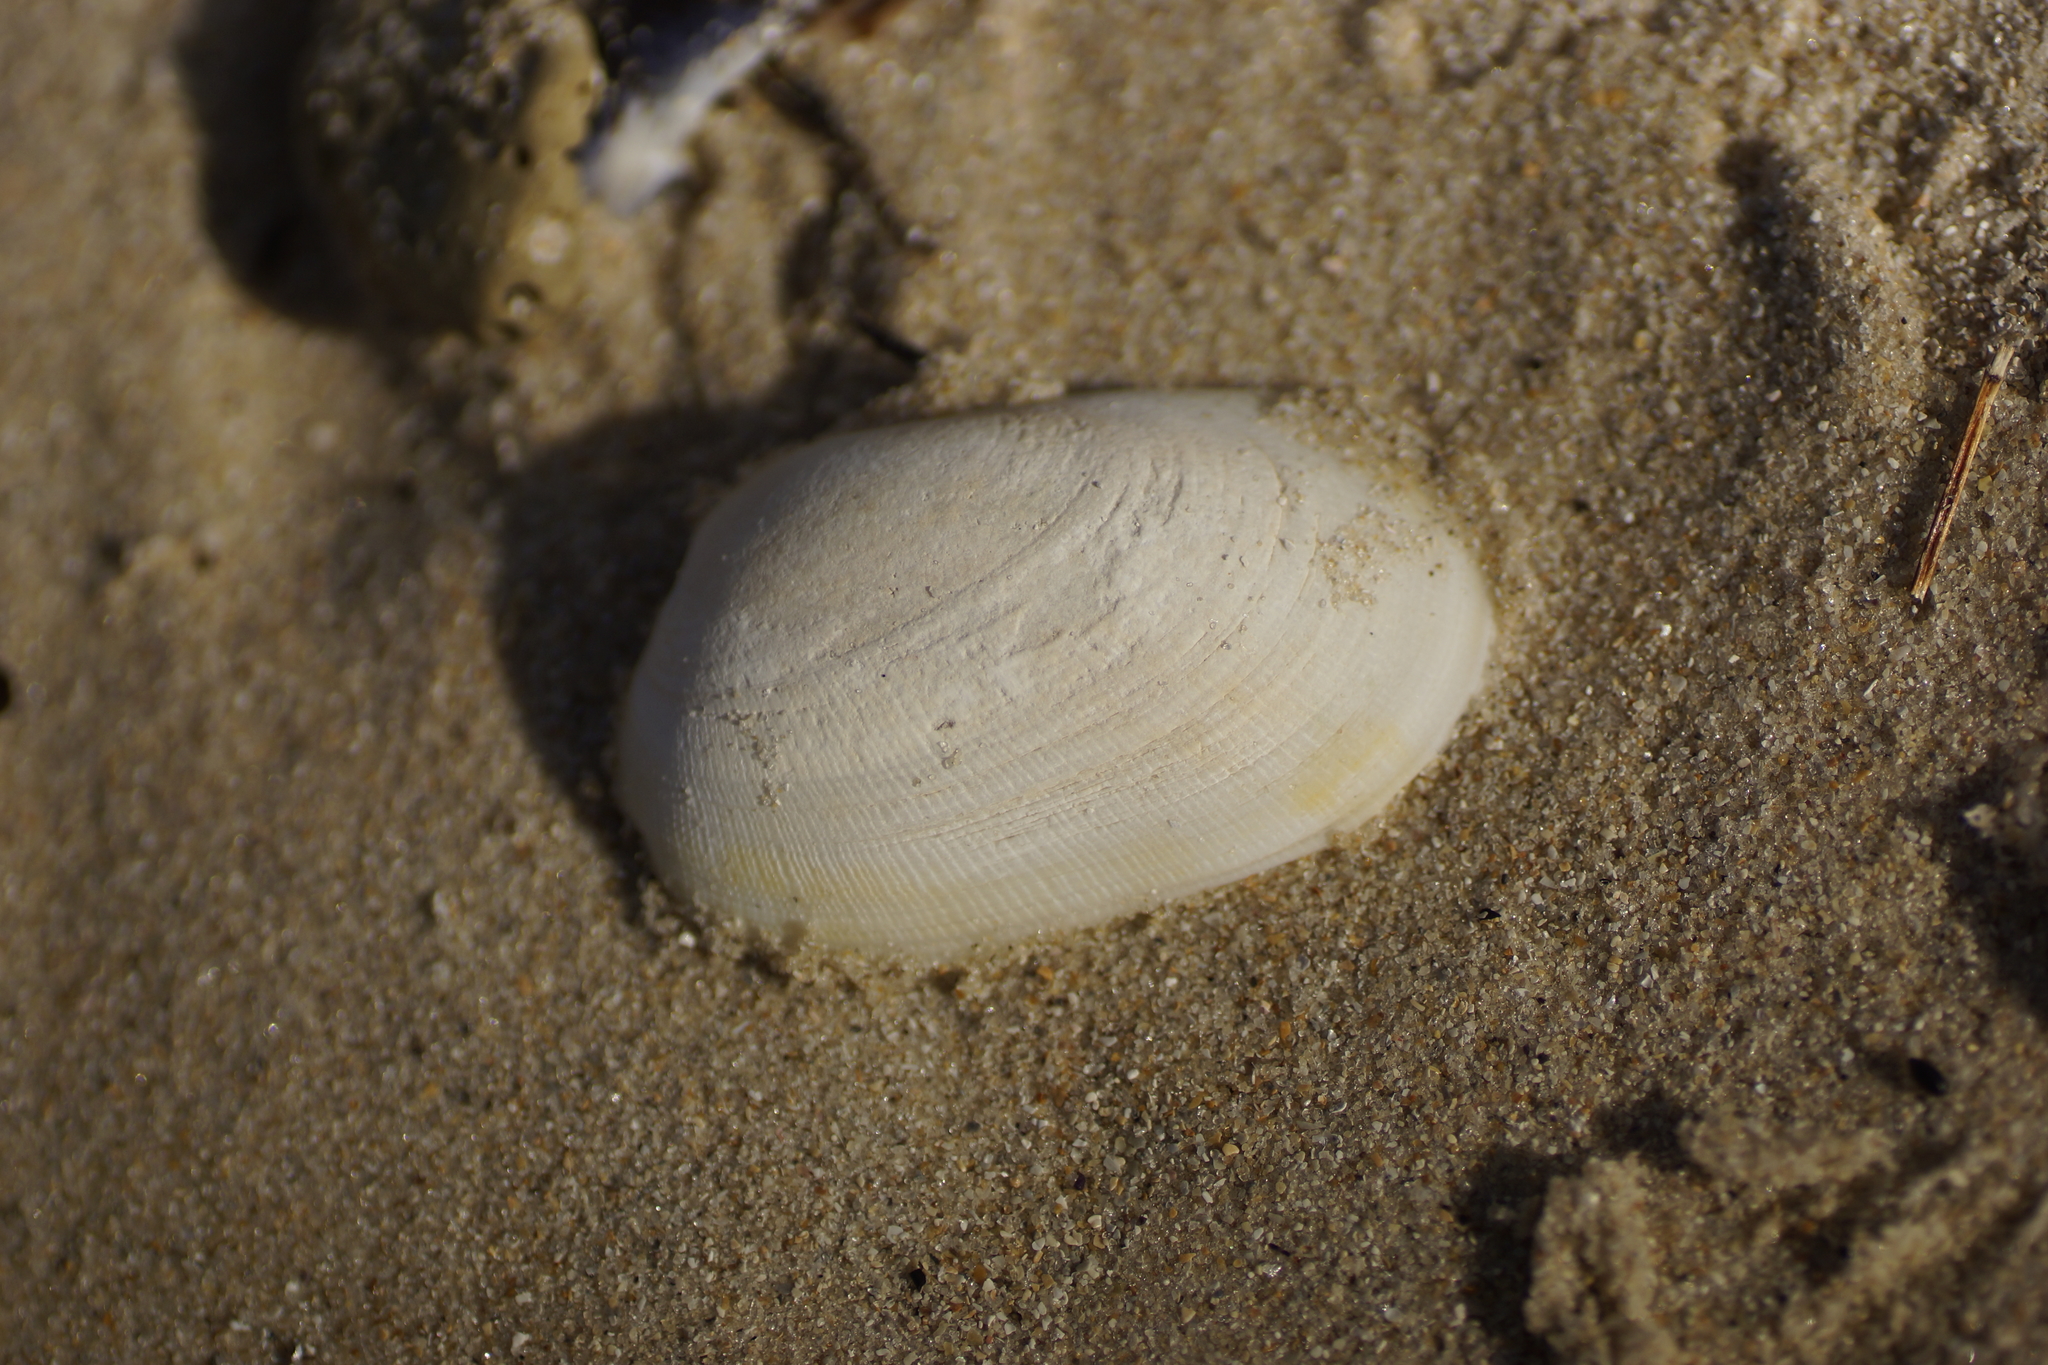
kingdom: Animalia
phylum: Mollusca
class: Bivalvia
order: Venerida
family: Veneridae
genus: Venerupis
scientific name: Venerupis galactites
